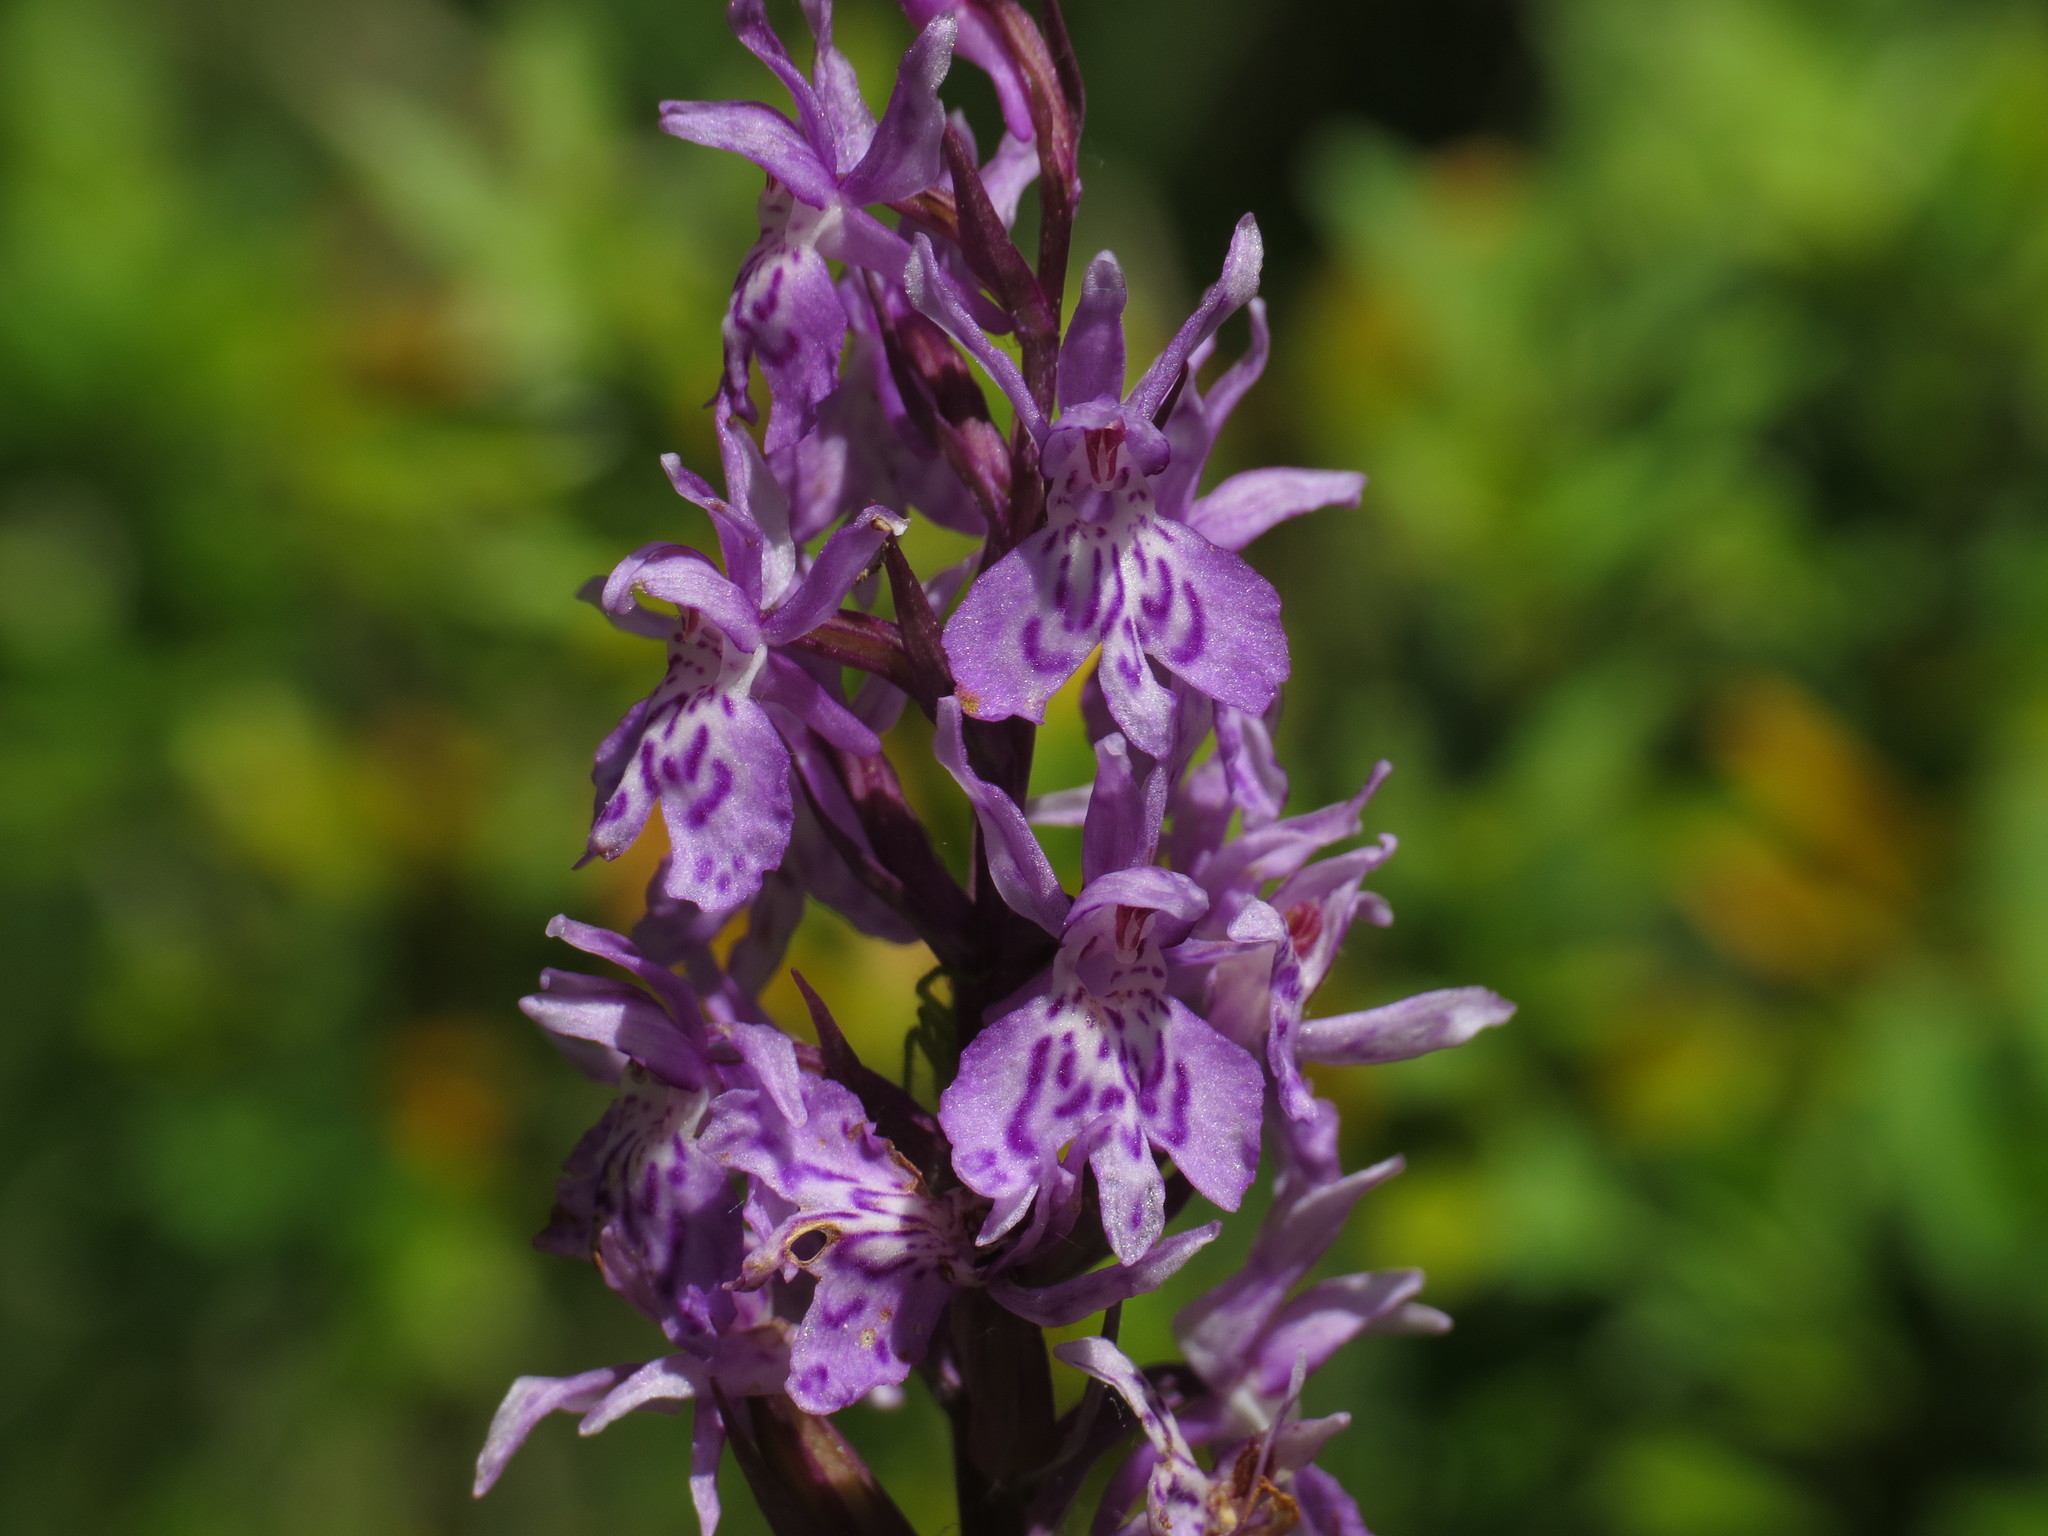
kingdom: Plantae
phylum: Tracheophyta
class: Liliopsida
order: Asparagales
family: Orchidaceae
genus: Dactylorhiza
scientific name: Dactylorhiza maculata
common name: Heath spotted-orchid
